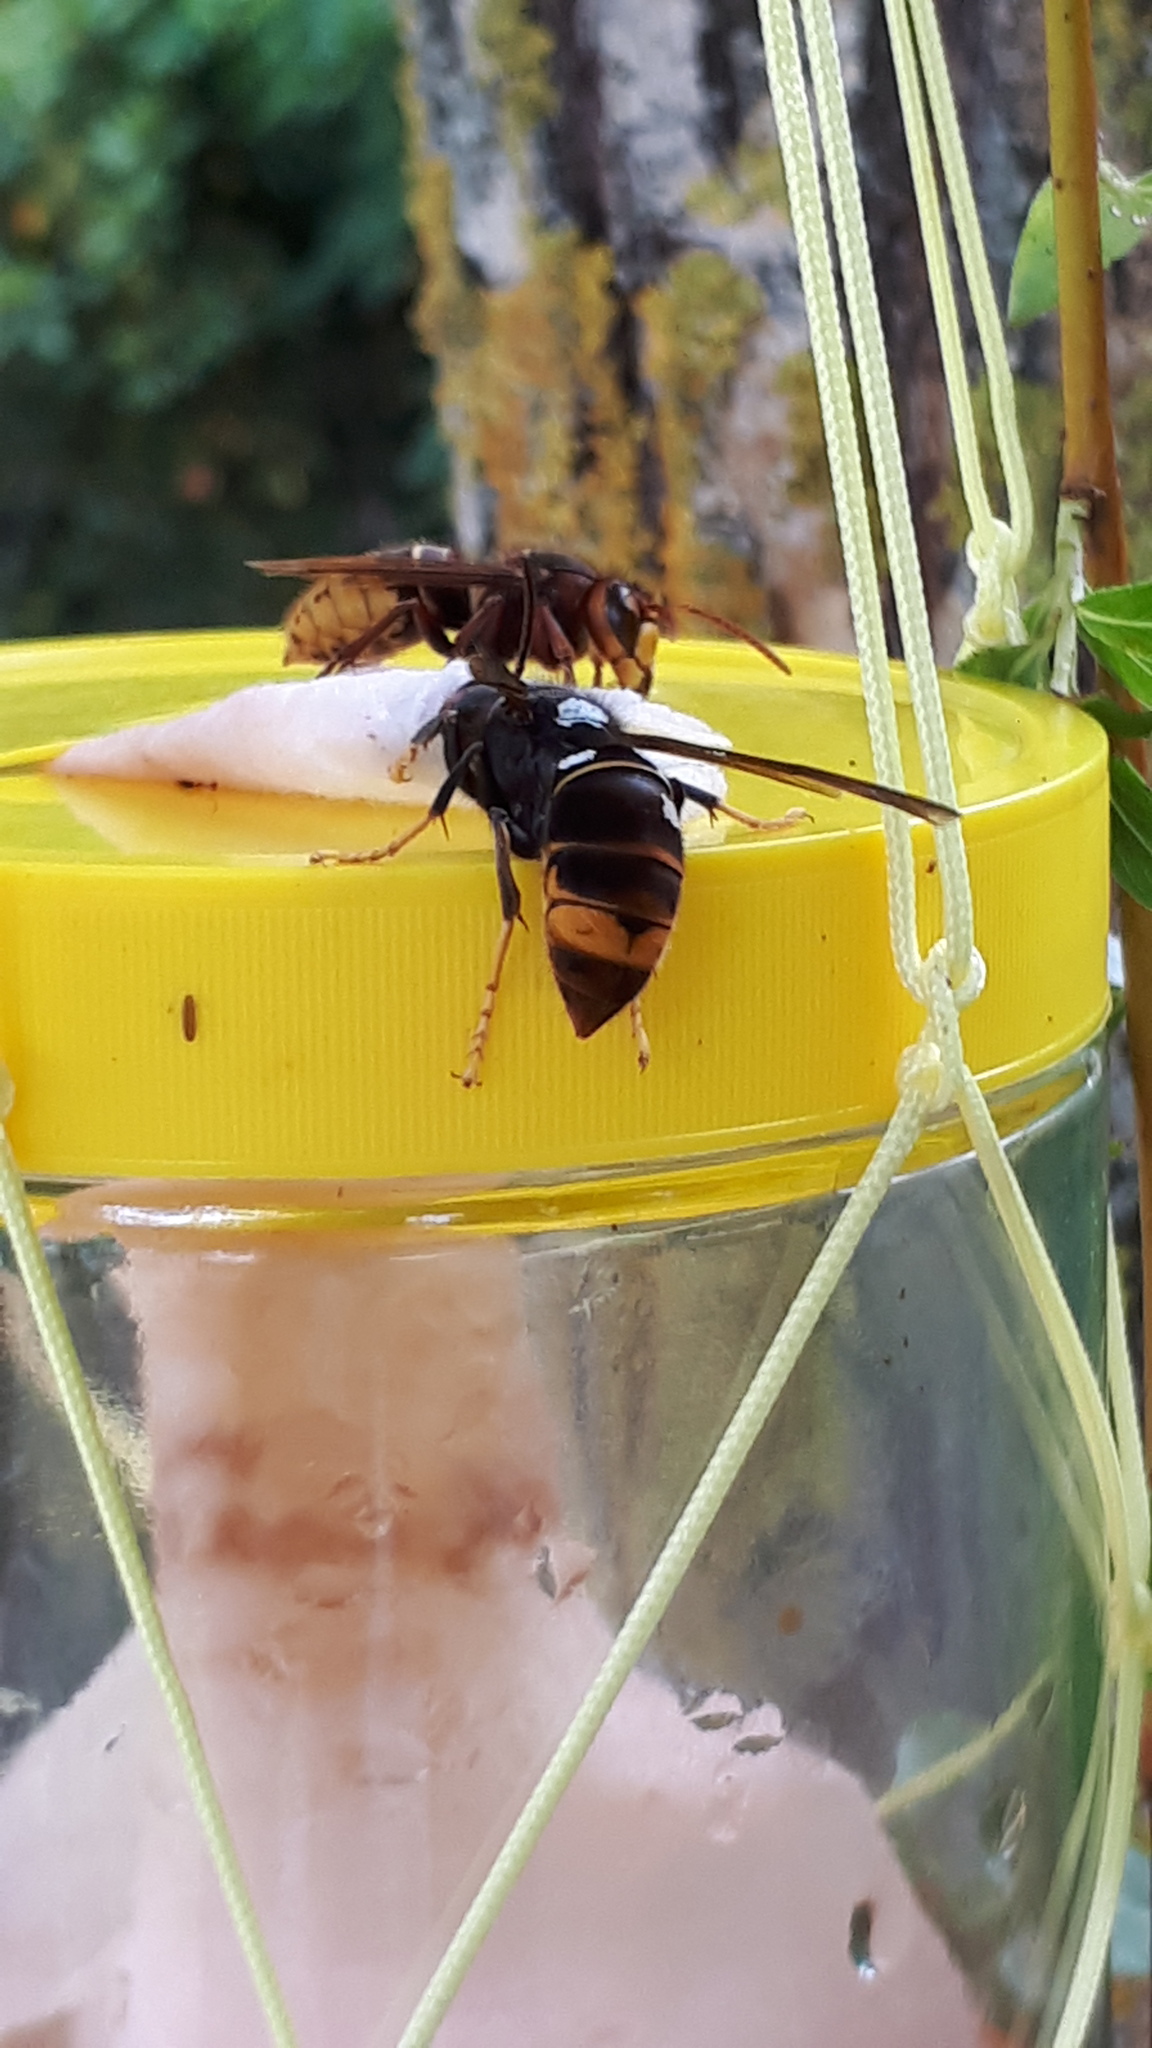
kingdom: Animalia
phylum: Arthropoda
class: Insecta
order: Hymenoptera
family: Vespidae
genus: Vespa
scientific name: Vespa velutina
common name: Asian hornet
